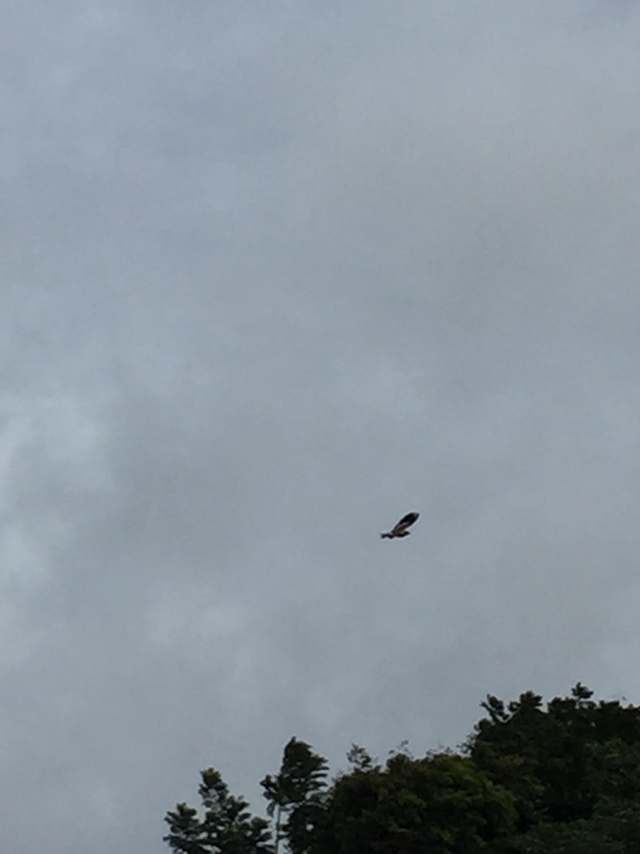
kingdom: Animalia
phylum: Chordata
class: Aves
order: Charadriiformes
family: Charadriidae
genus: Vanellus
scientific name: Vanellus indicus
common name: Red-wattled lapwing
